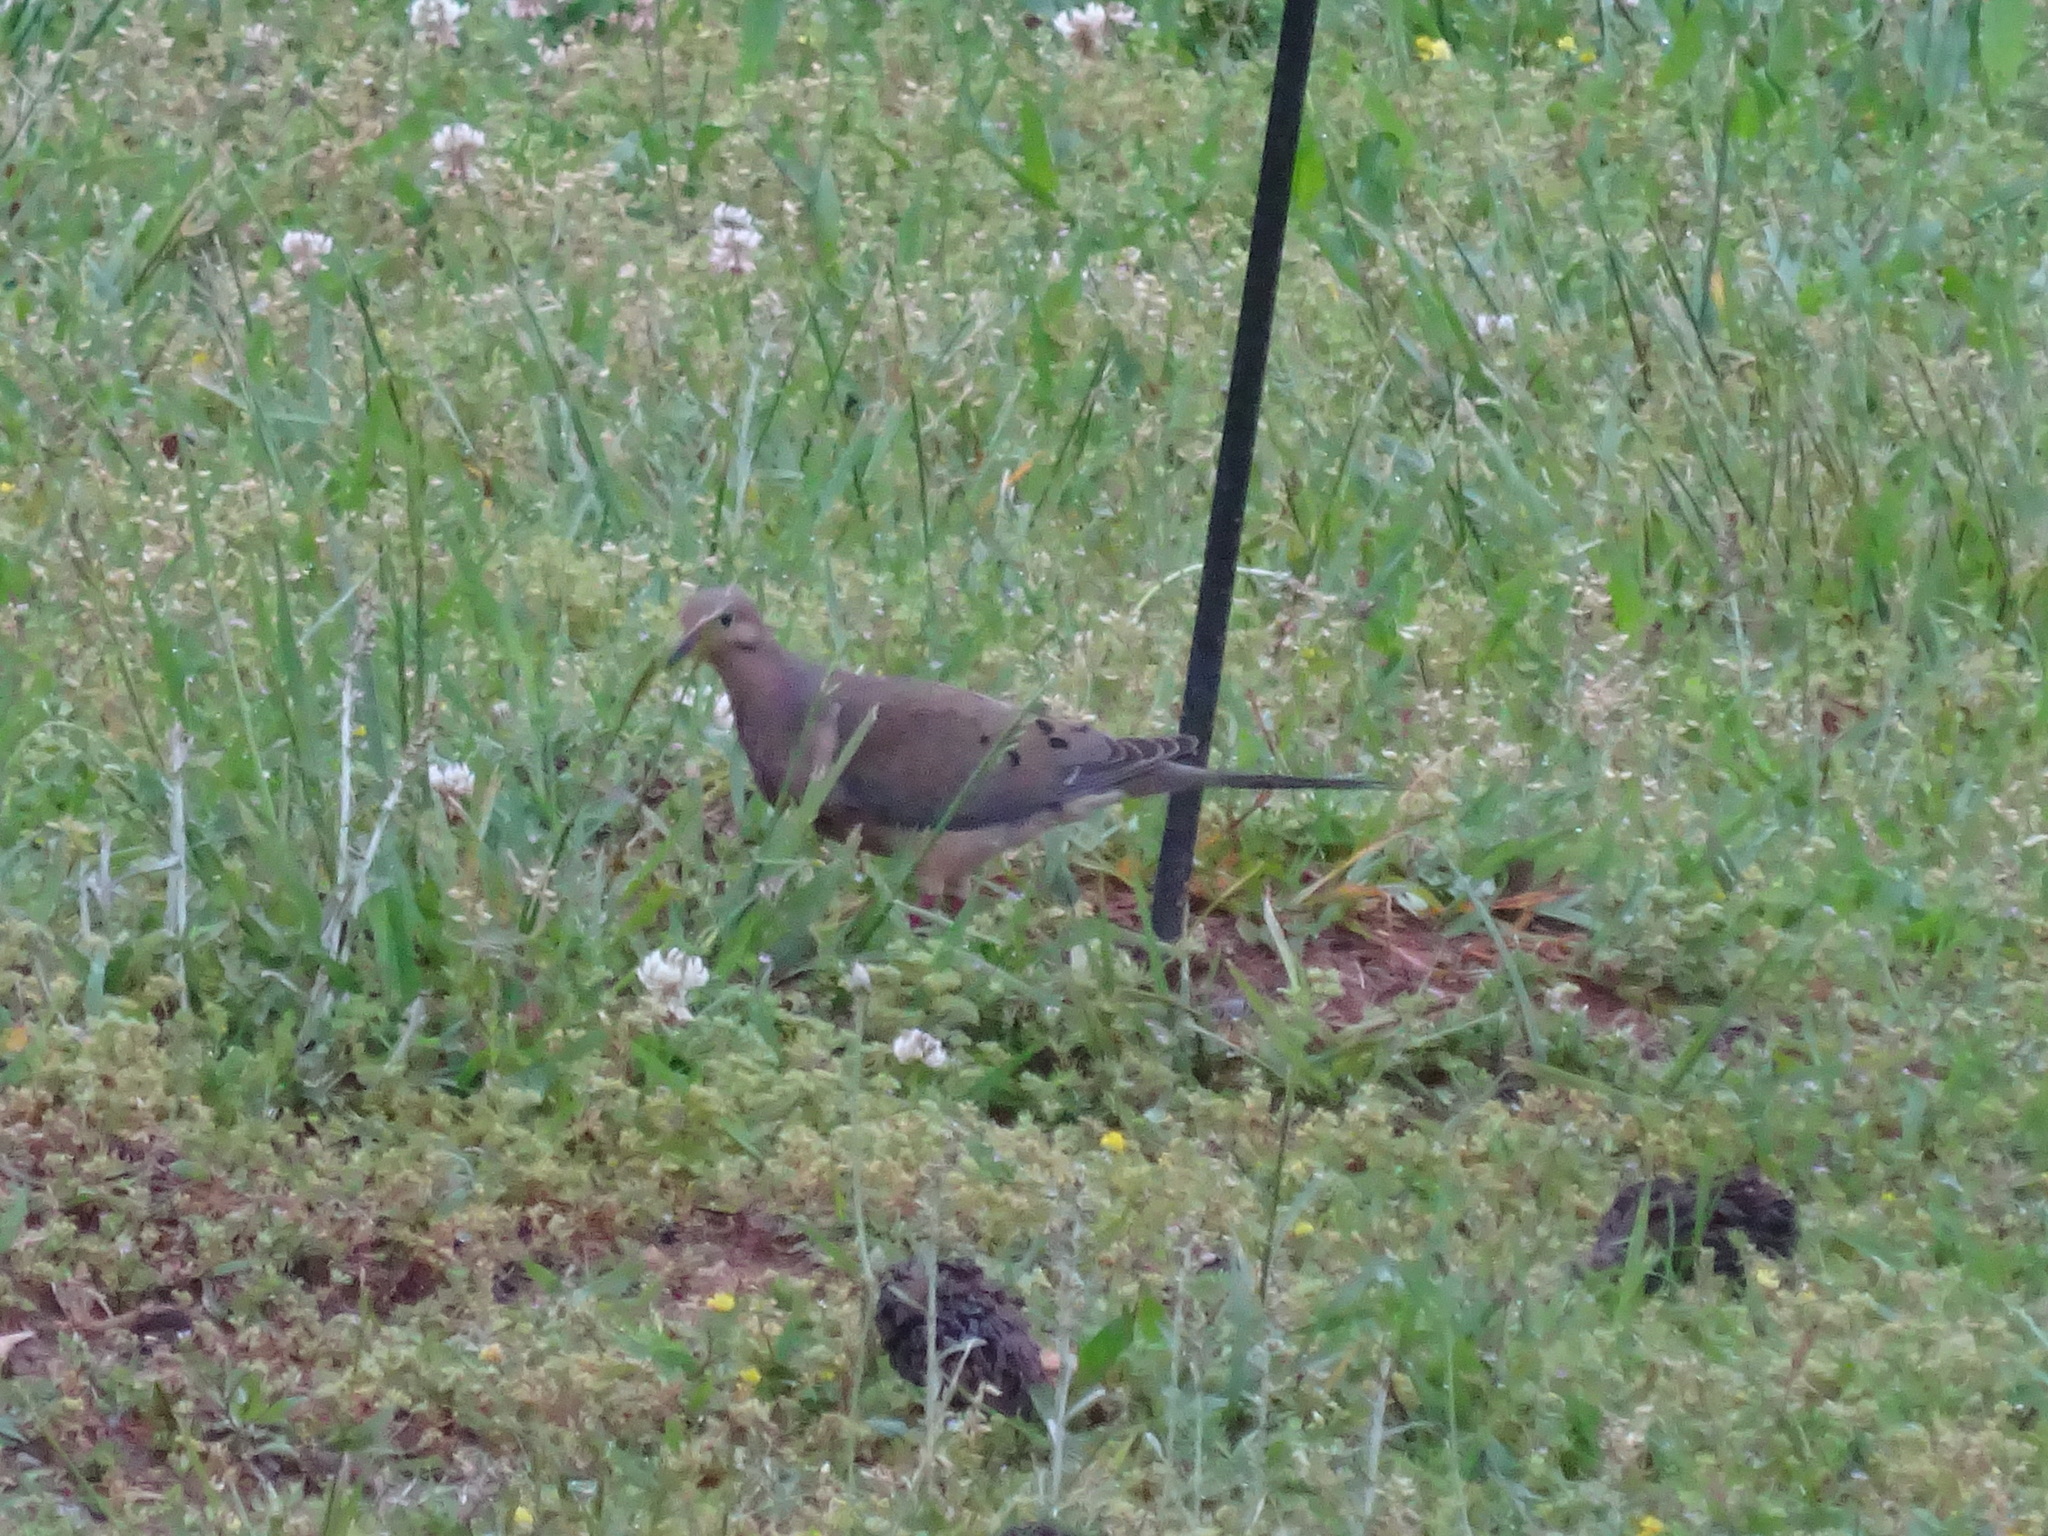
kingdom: Animalia
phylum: Chordata
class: Aves
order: Columbiformes
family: Columbidae
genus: Zenaida
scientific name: Zenaida macroura
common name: Mourning dove
